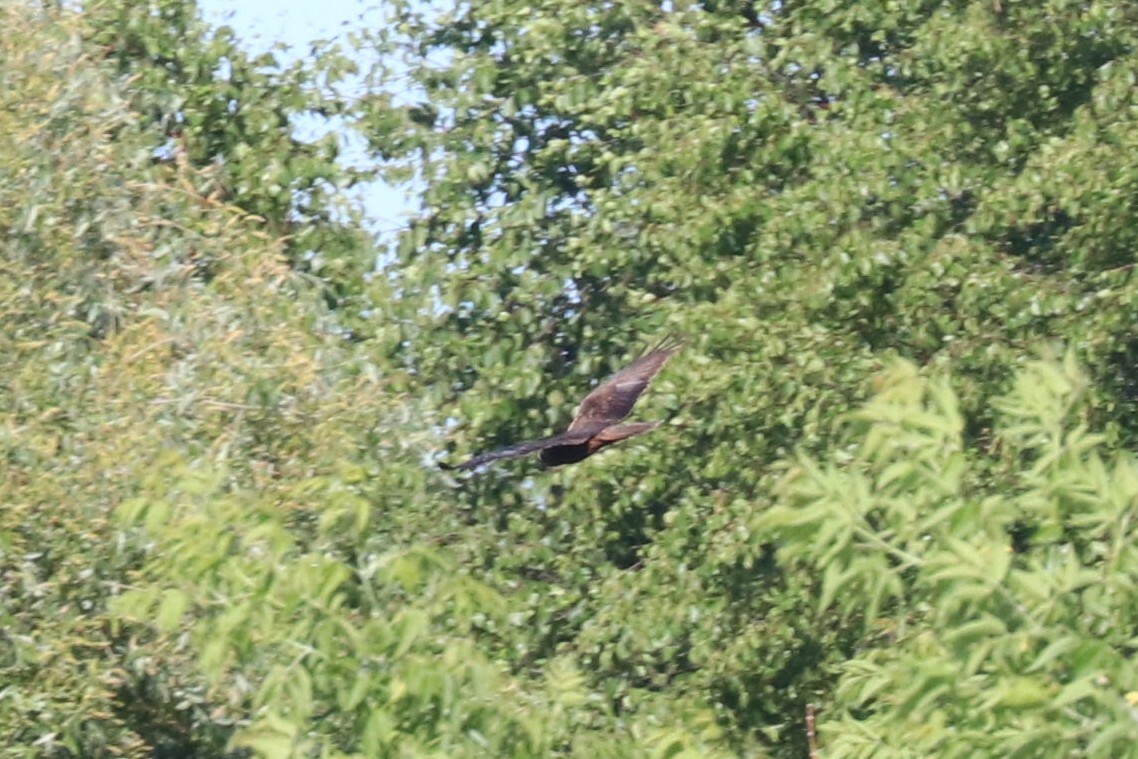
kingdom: Animalia
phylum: Chordata
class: Aves
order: Accipitriformes
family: Accipitridae
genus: Circus
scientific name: Circus aeruginosus
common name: Western marsh harrier
